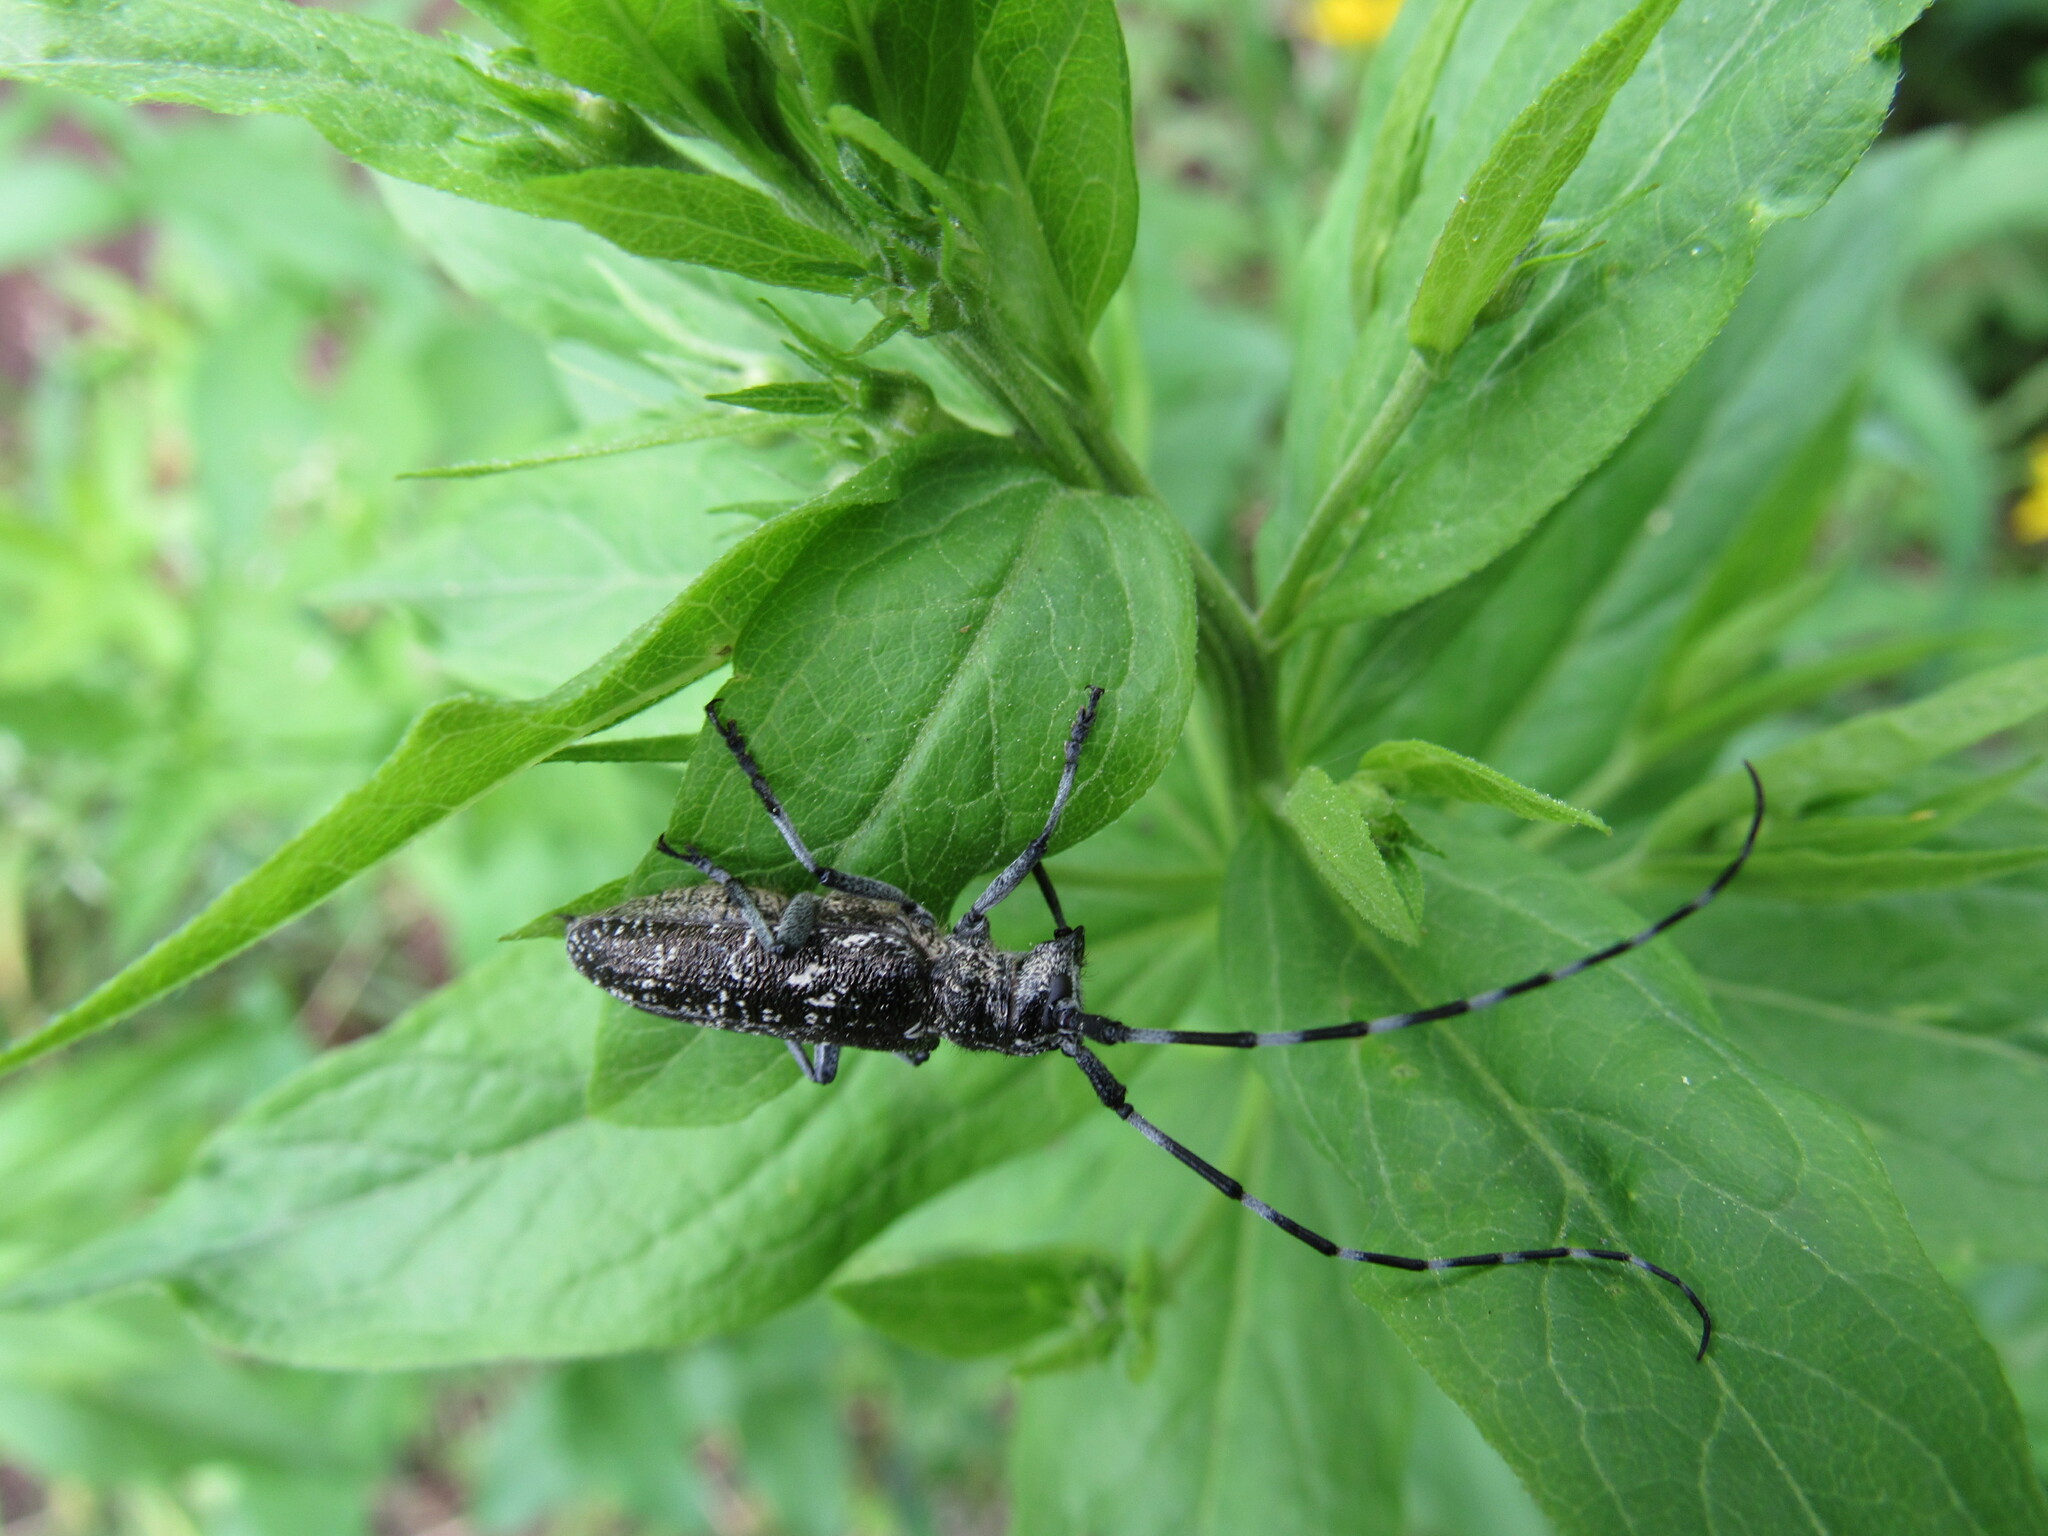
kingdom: Animalia
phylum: Arthropoda
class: Insecta
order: Coleoptera
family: Cerambycidae
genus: Monochamus
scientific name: Monochamus scutellatus
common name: White-spotted sawyer beetle
